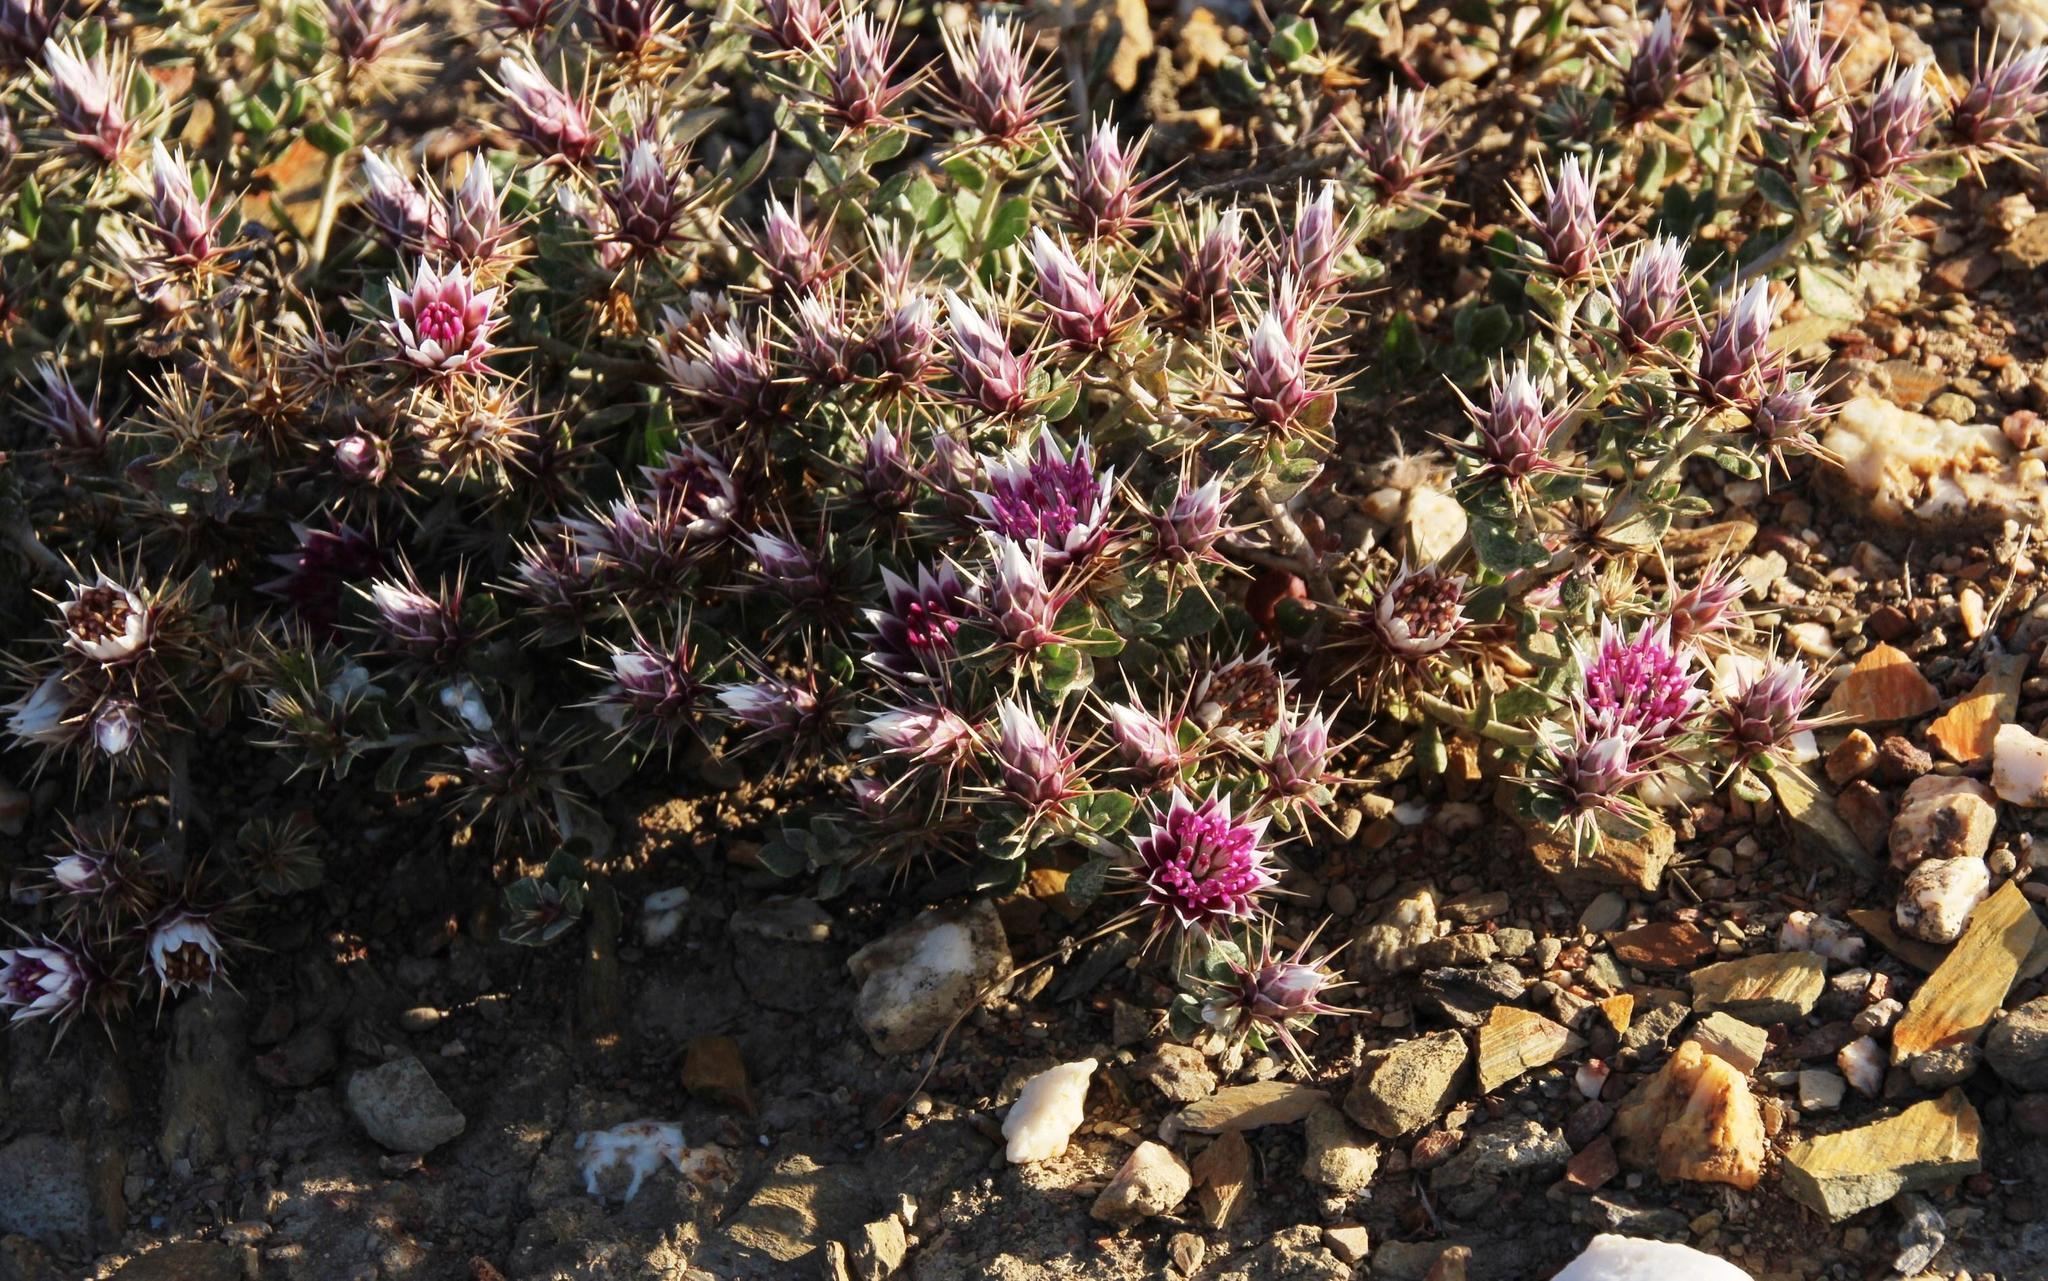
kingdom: Plantae
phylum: Tracheophyta
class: Magnoliopsida
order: Asterales
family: Asteraceae
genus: Macledium
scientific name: Macledium spinosum
